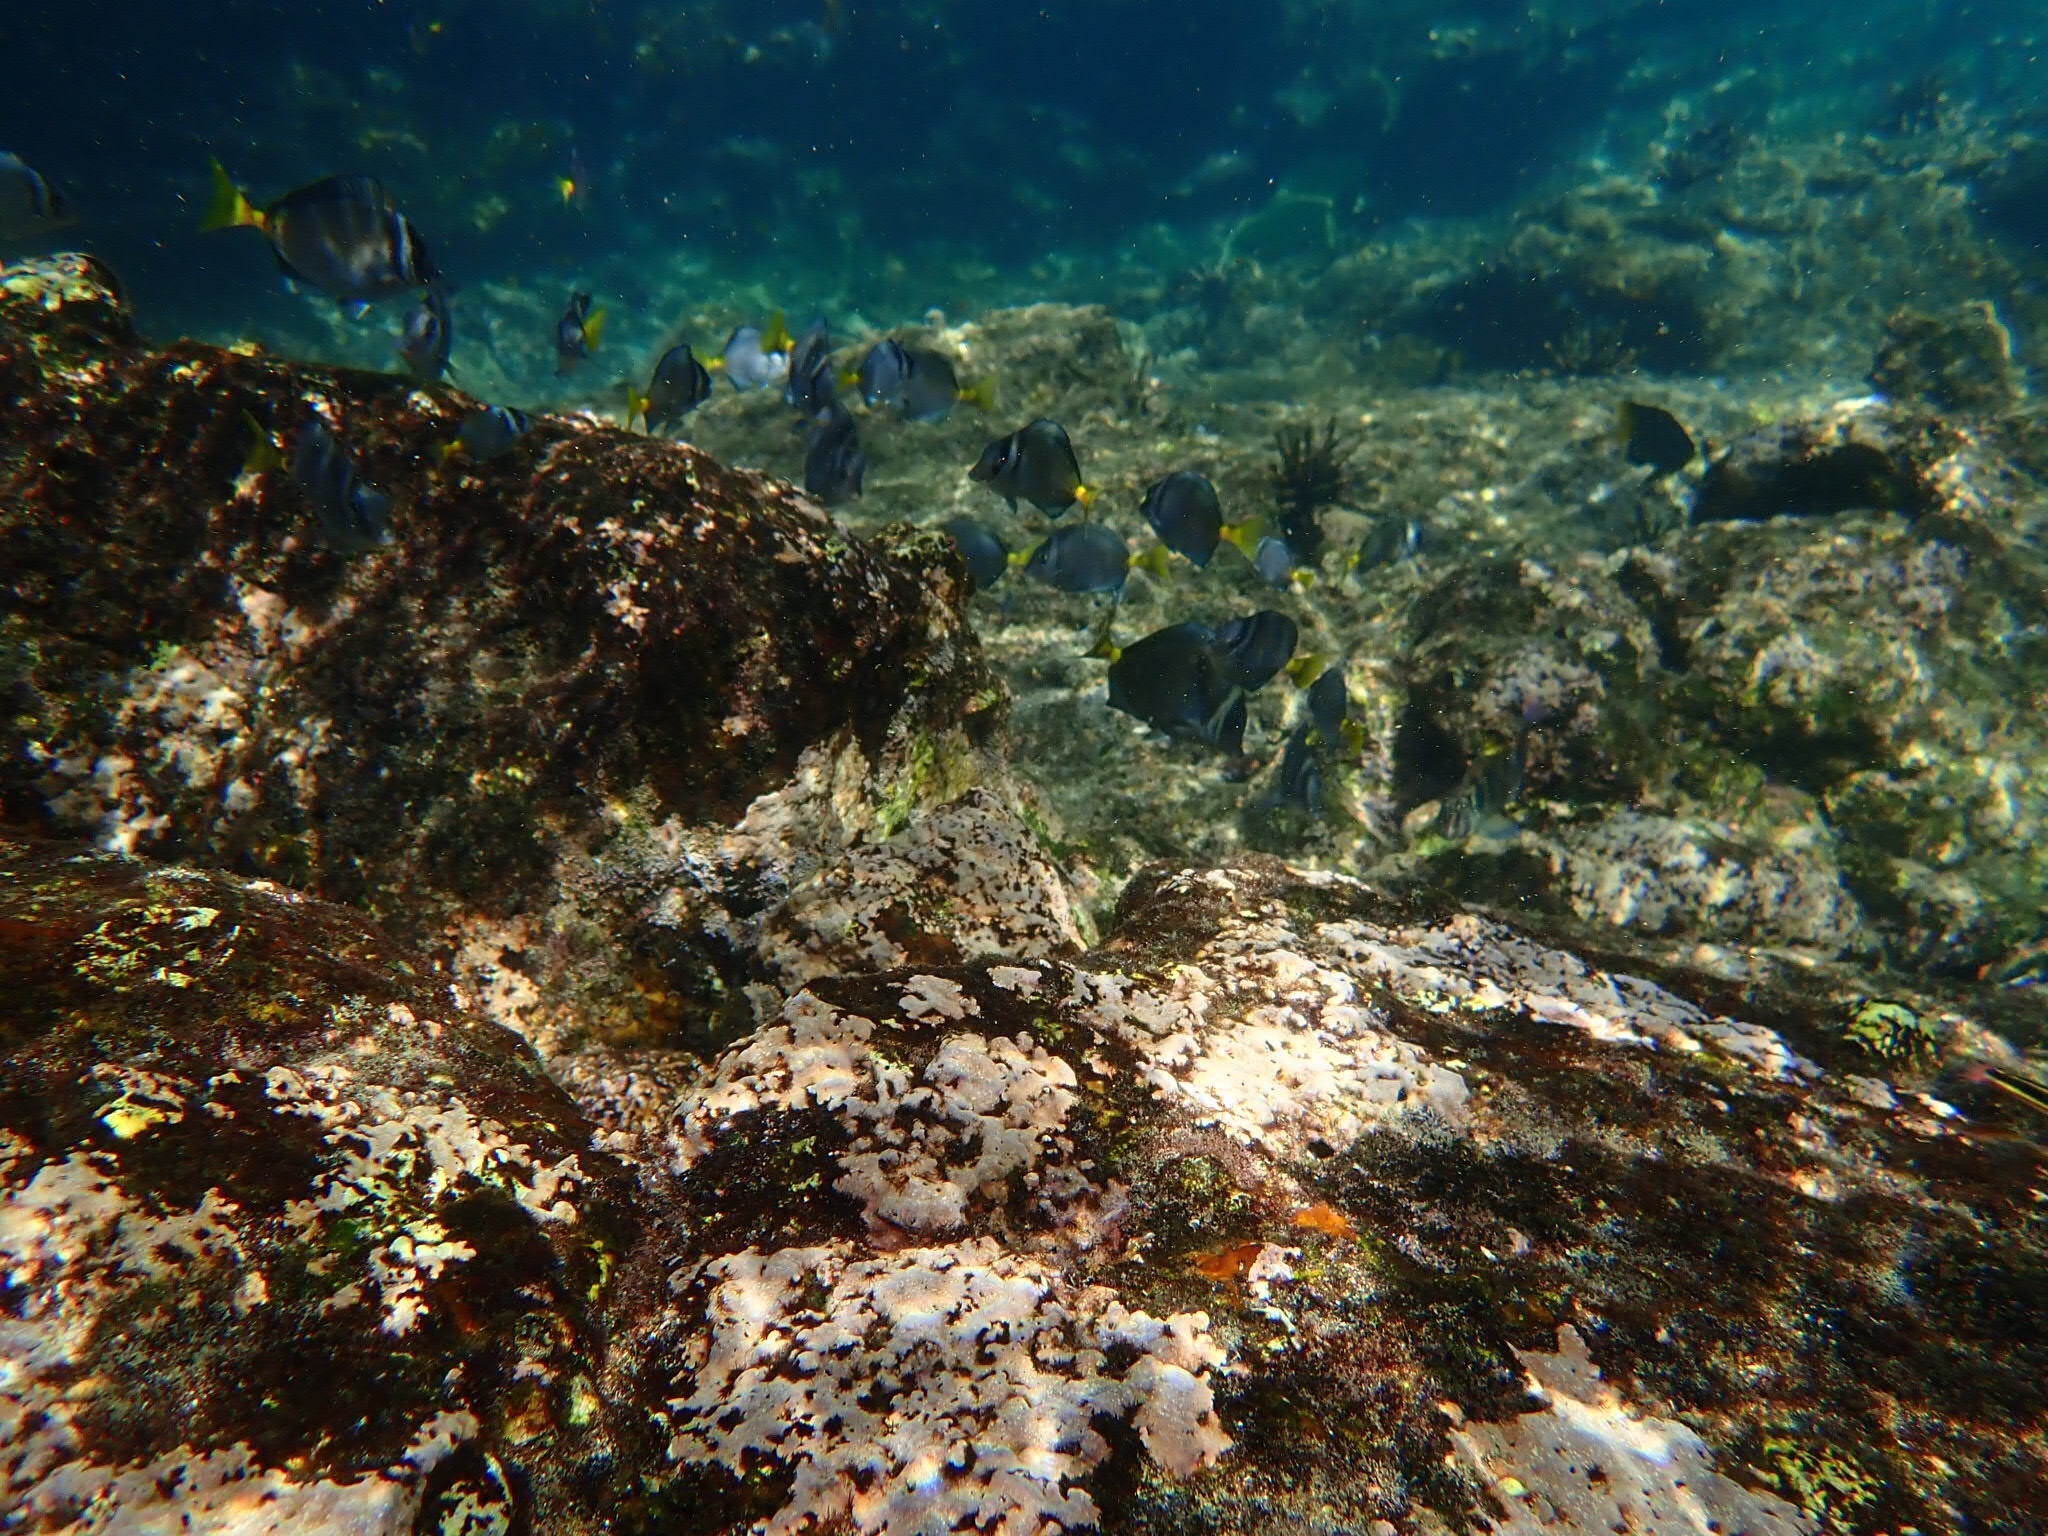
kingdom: Animalia
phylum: Chordata
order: Perciformes
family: Acanthuridae
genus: Prionurus
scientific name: Prionurus laticlavius
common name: Razor surgeonfish
